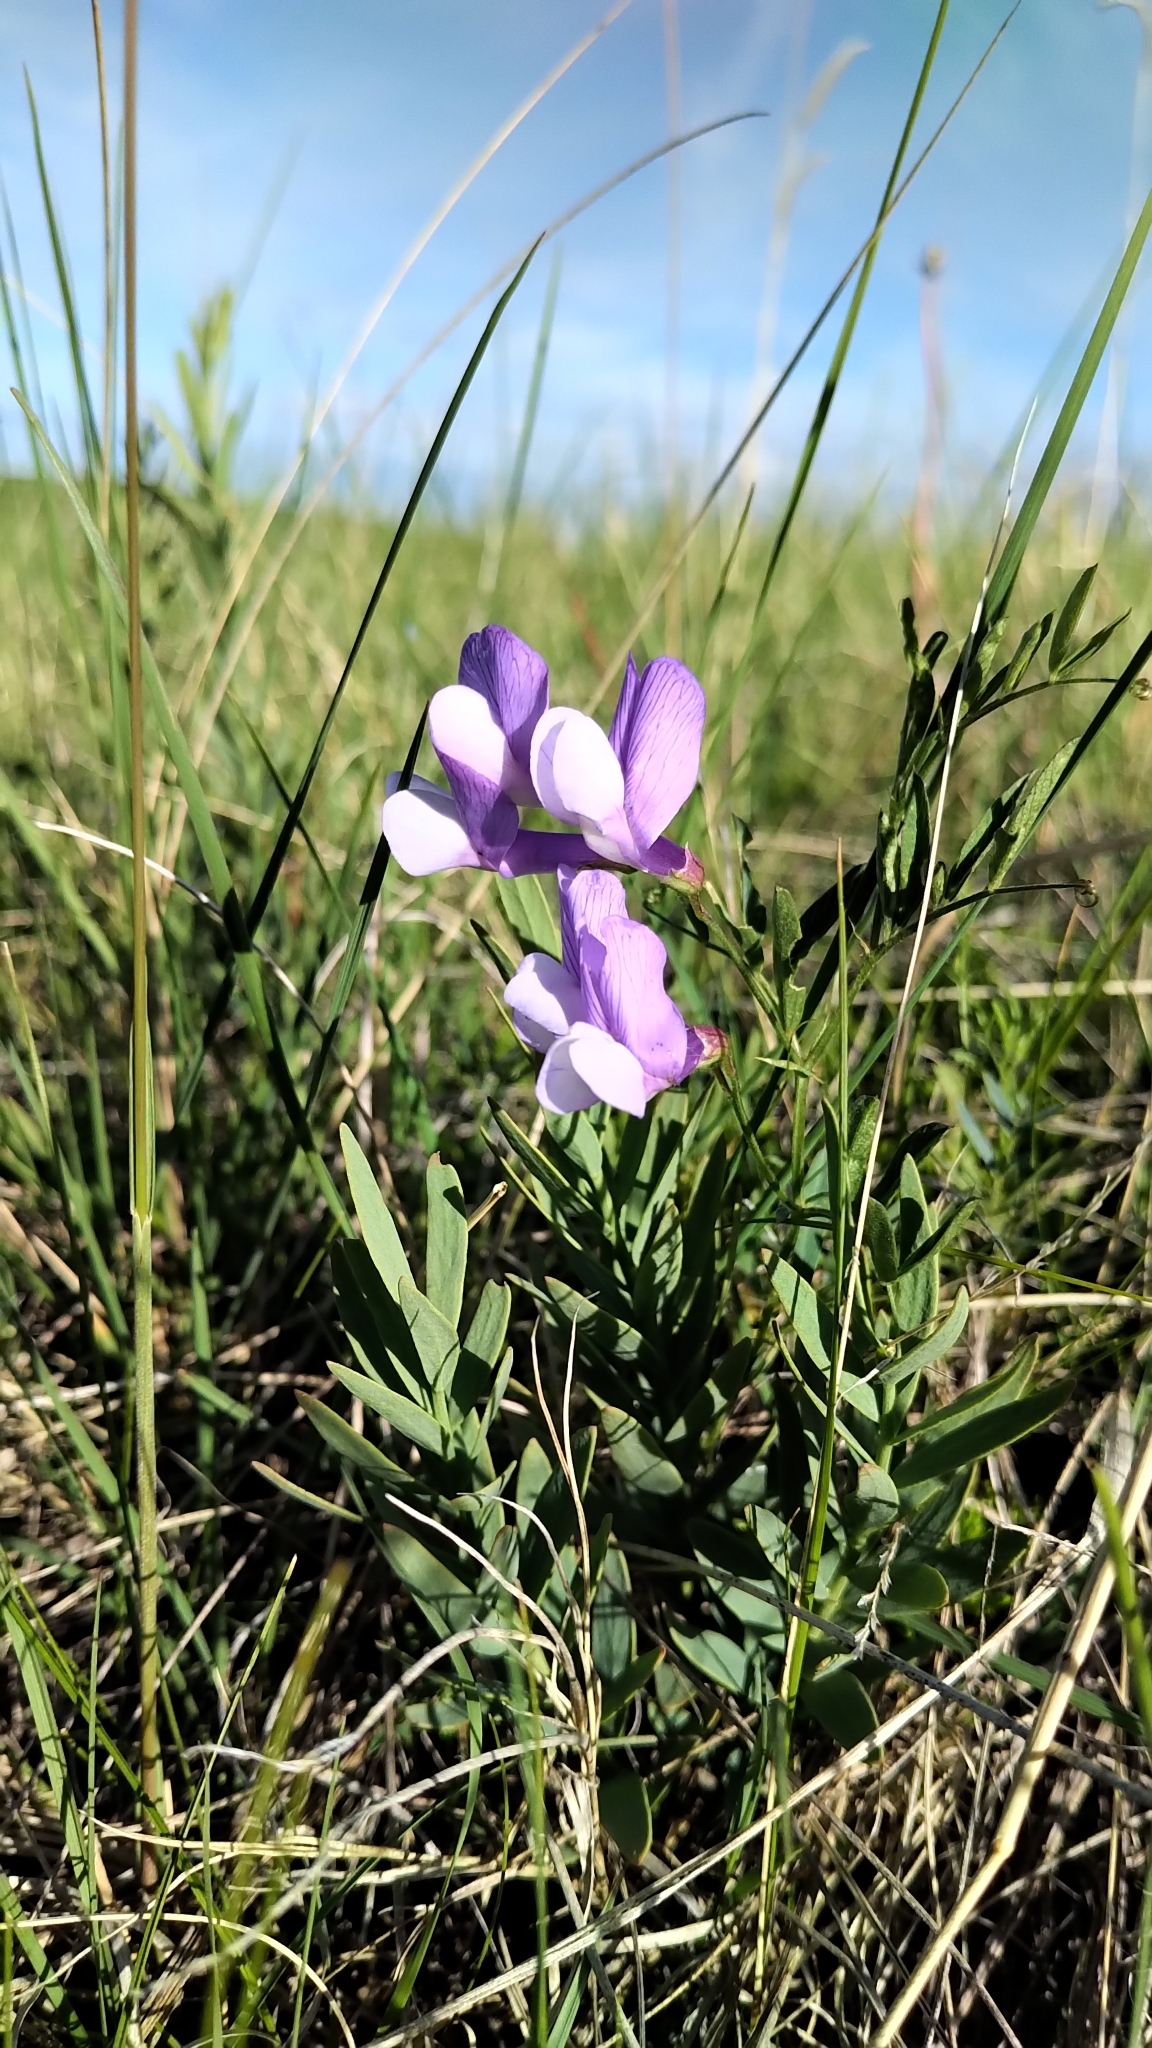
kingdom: Plantae
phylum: Tracheophyta
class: Magnoliopsida
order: Fabales
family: Fabaceae
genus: Vicia
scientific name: Vicia americana
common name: American vetch
